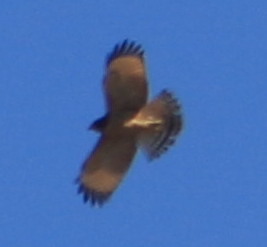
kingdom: Animalia
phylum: Chordata
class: Aves
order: Accipitriformes
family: Accipitridae
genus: Rupornis
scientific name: Rupornis magnirostris
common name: Roadside hawk
